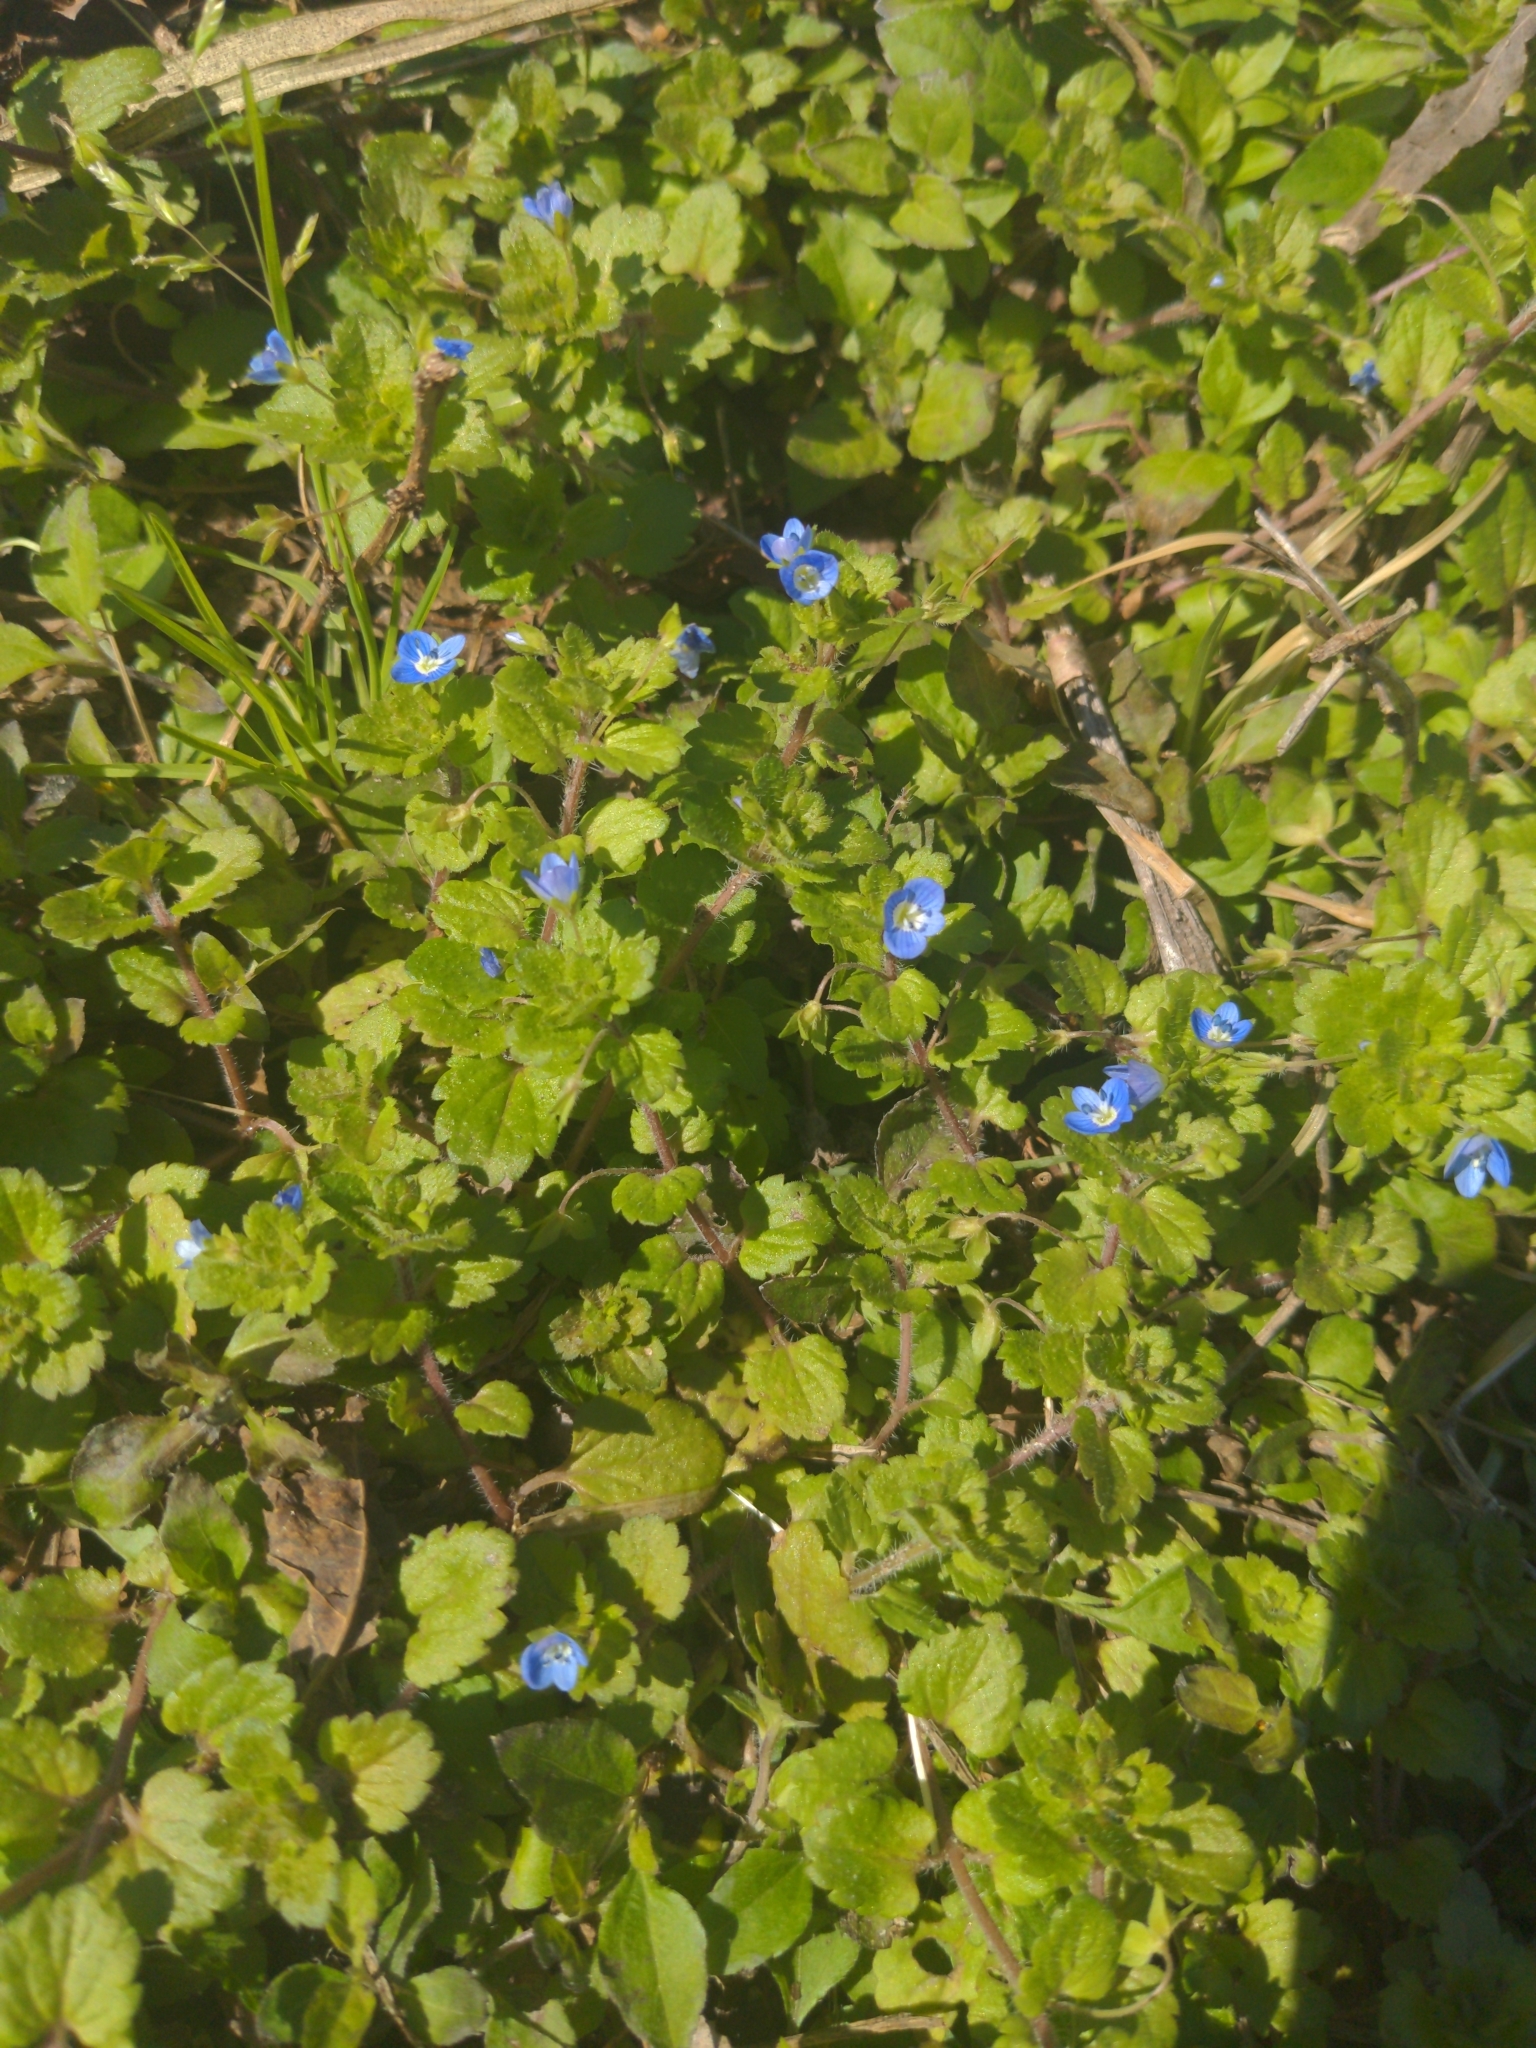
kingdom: Plantae
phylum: Tracheophyta
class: Magnoliopsida
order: Lamiales
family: Plantaginaceae
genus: Veronica
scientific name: Veronica persica
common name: Common field-speedwell
